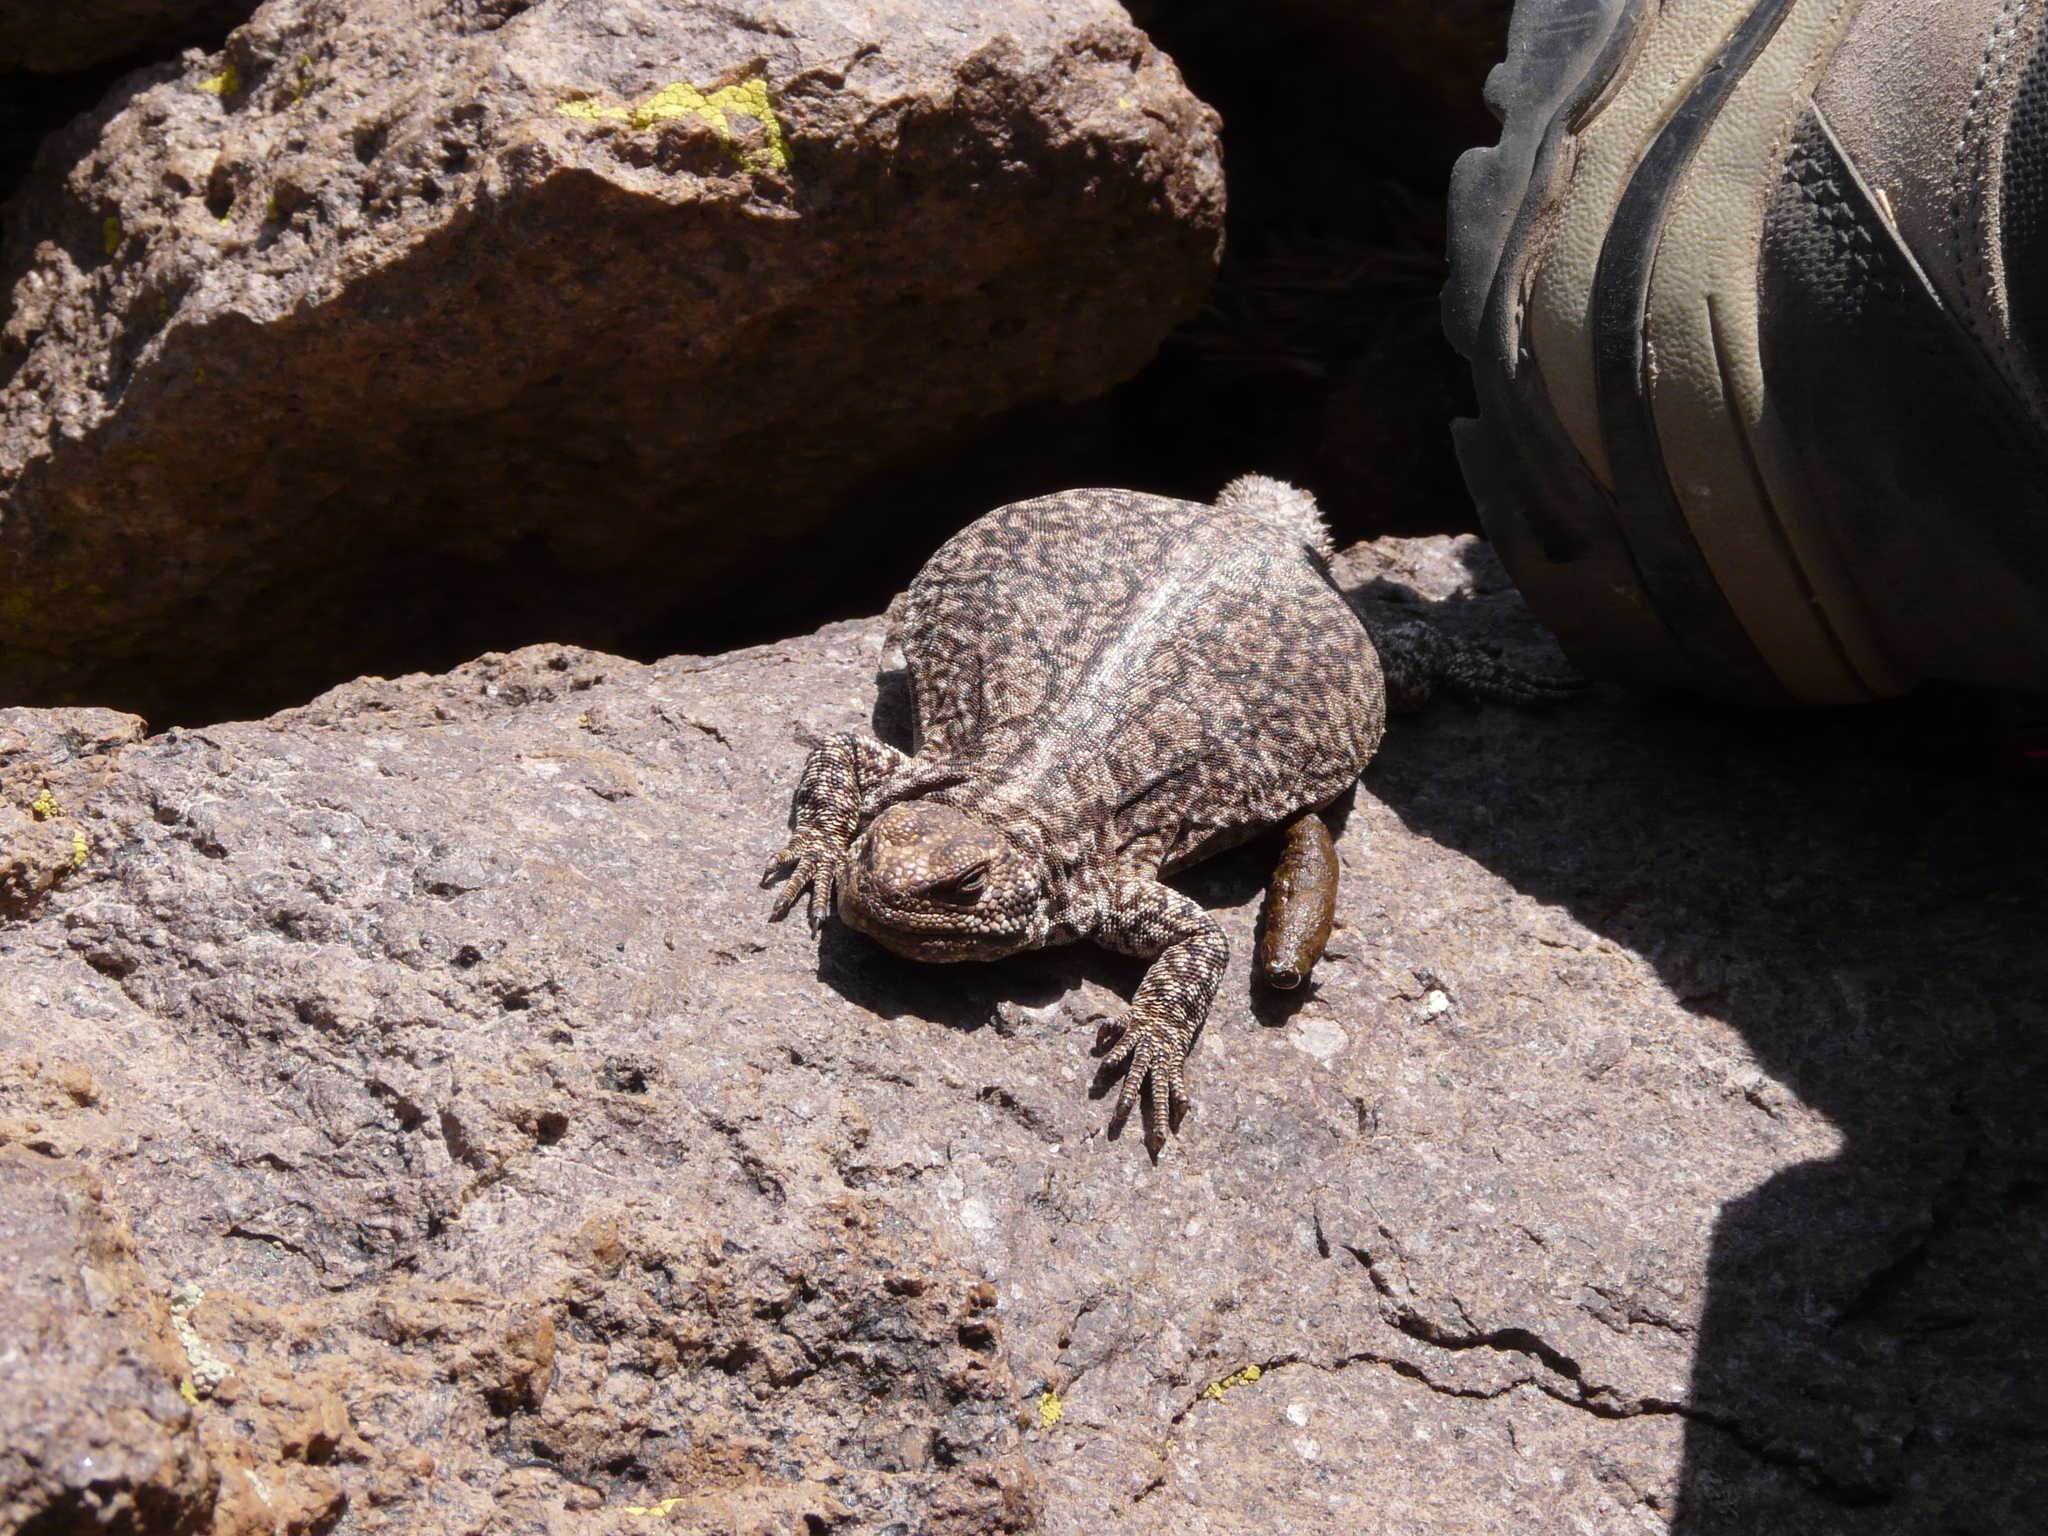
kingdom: Animalia
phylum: Chordata
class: Squamata
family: Liolaemidae
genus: Phymaturus
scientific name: Phymaturus roigorum
